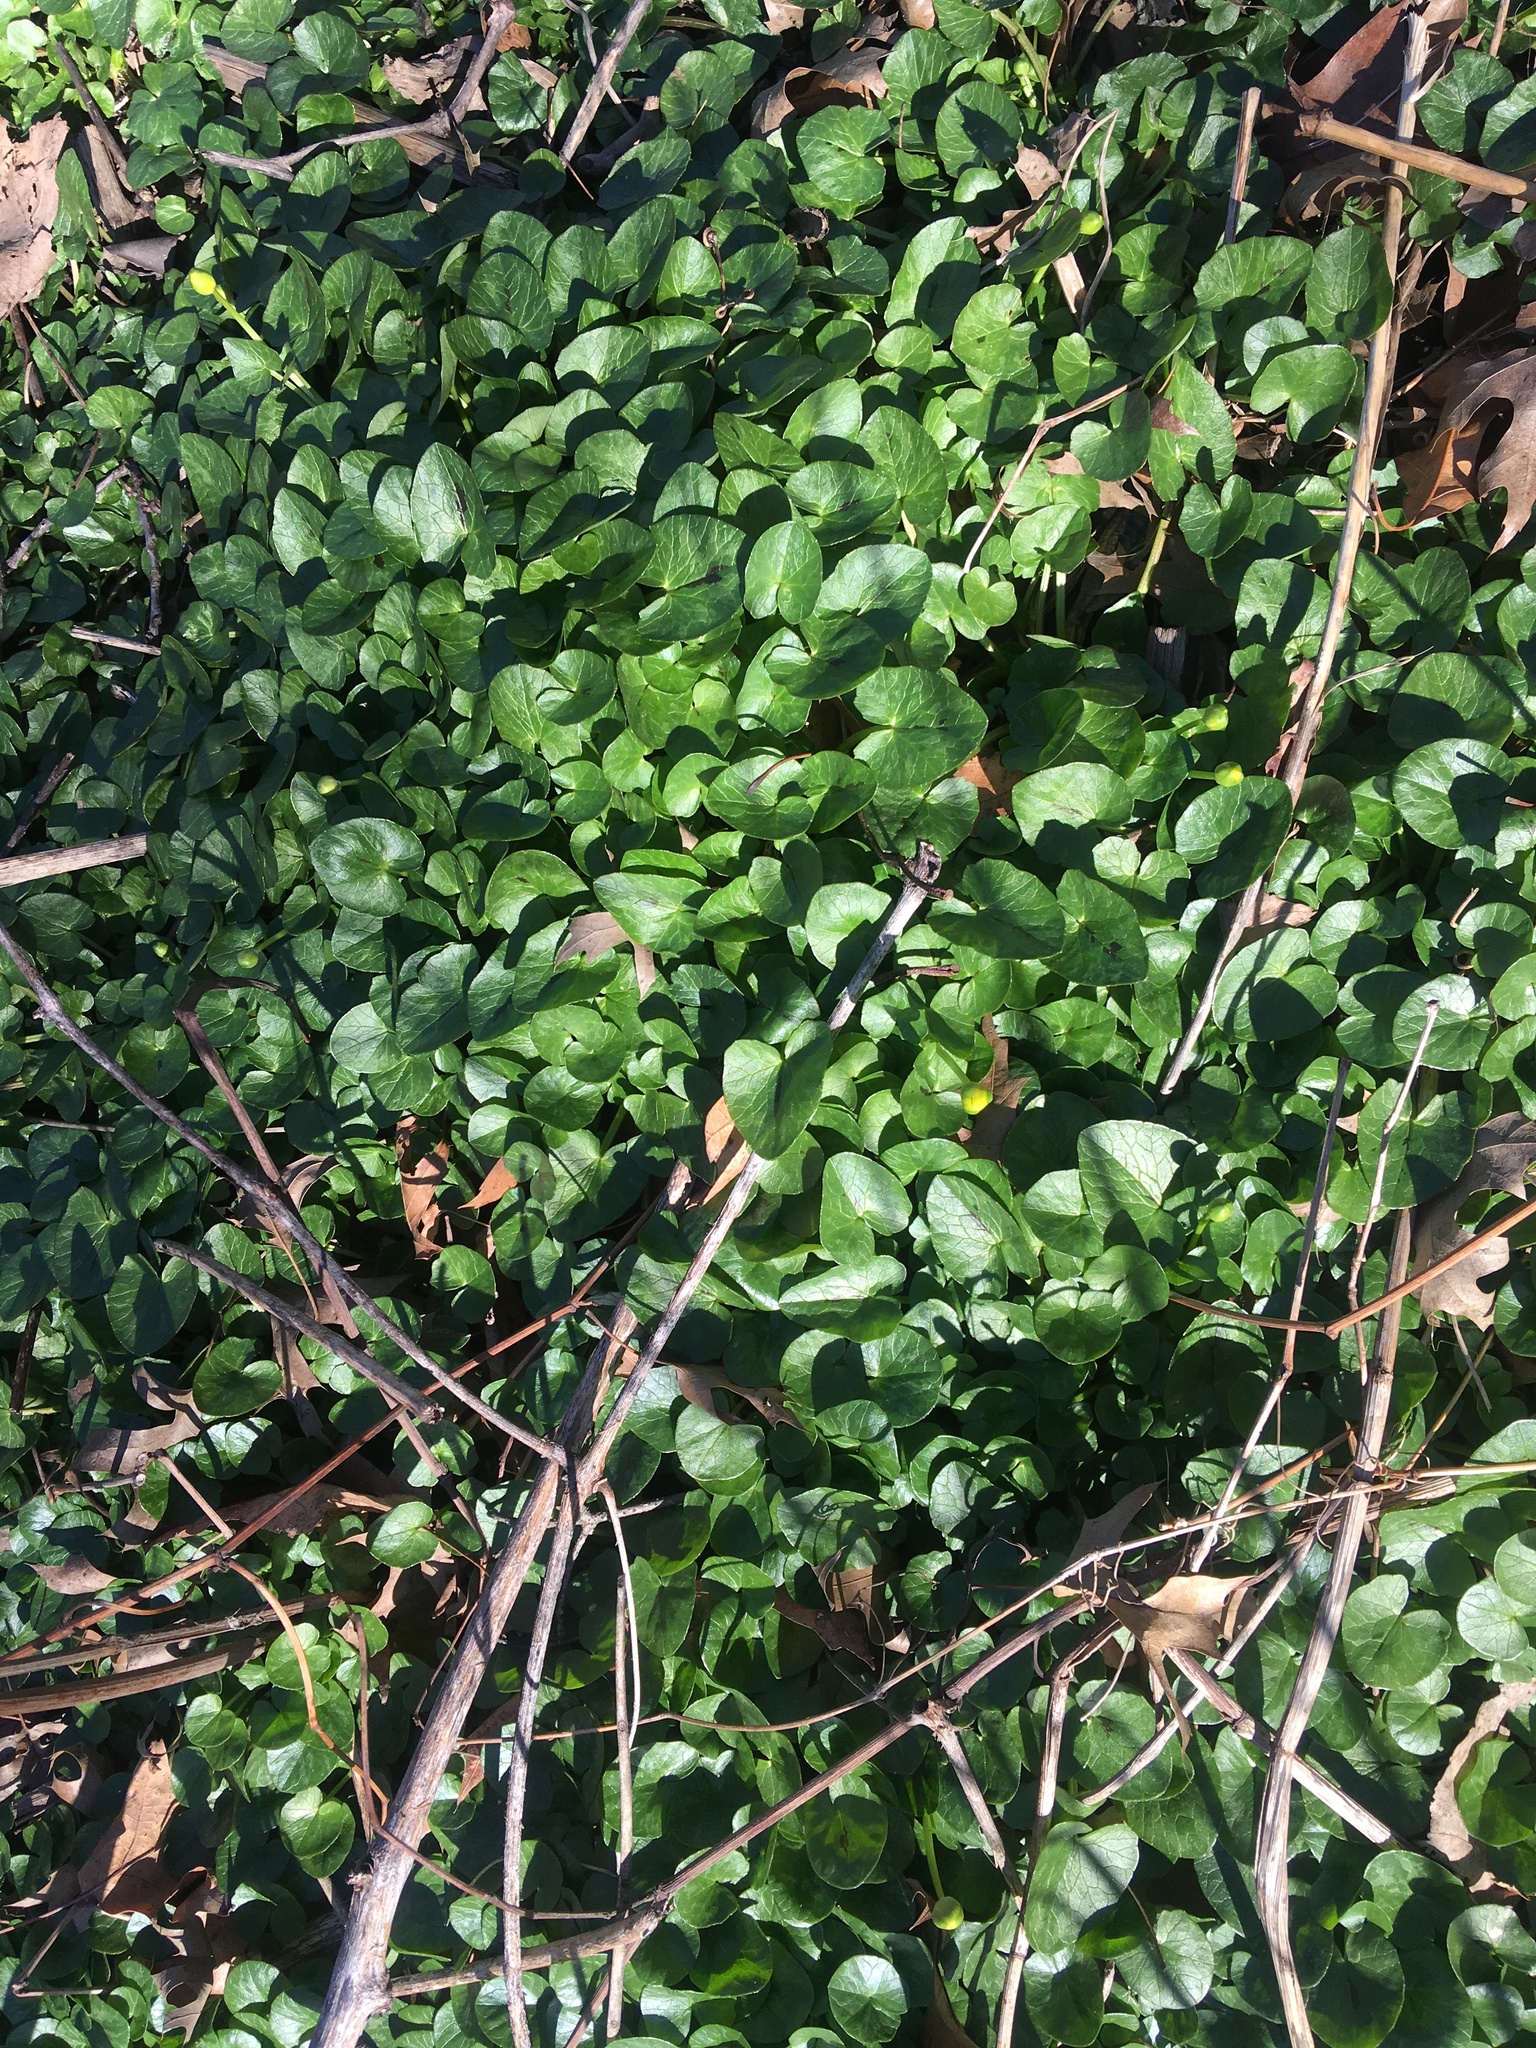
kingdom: Plantae
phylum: Tracheophyta
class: Magnoliopsida
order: Ranunculales
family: Ranunculaceae
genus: Ficaria
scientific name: Ficaria verna
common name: Lesser celandine
